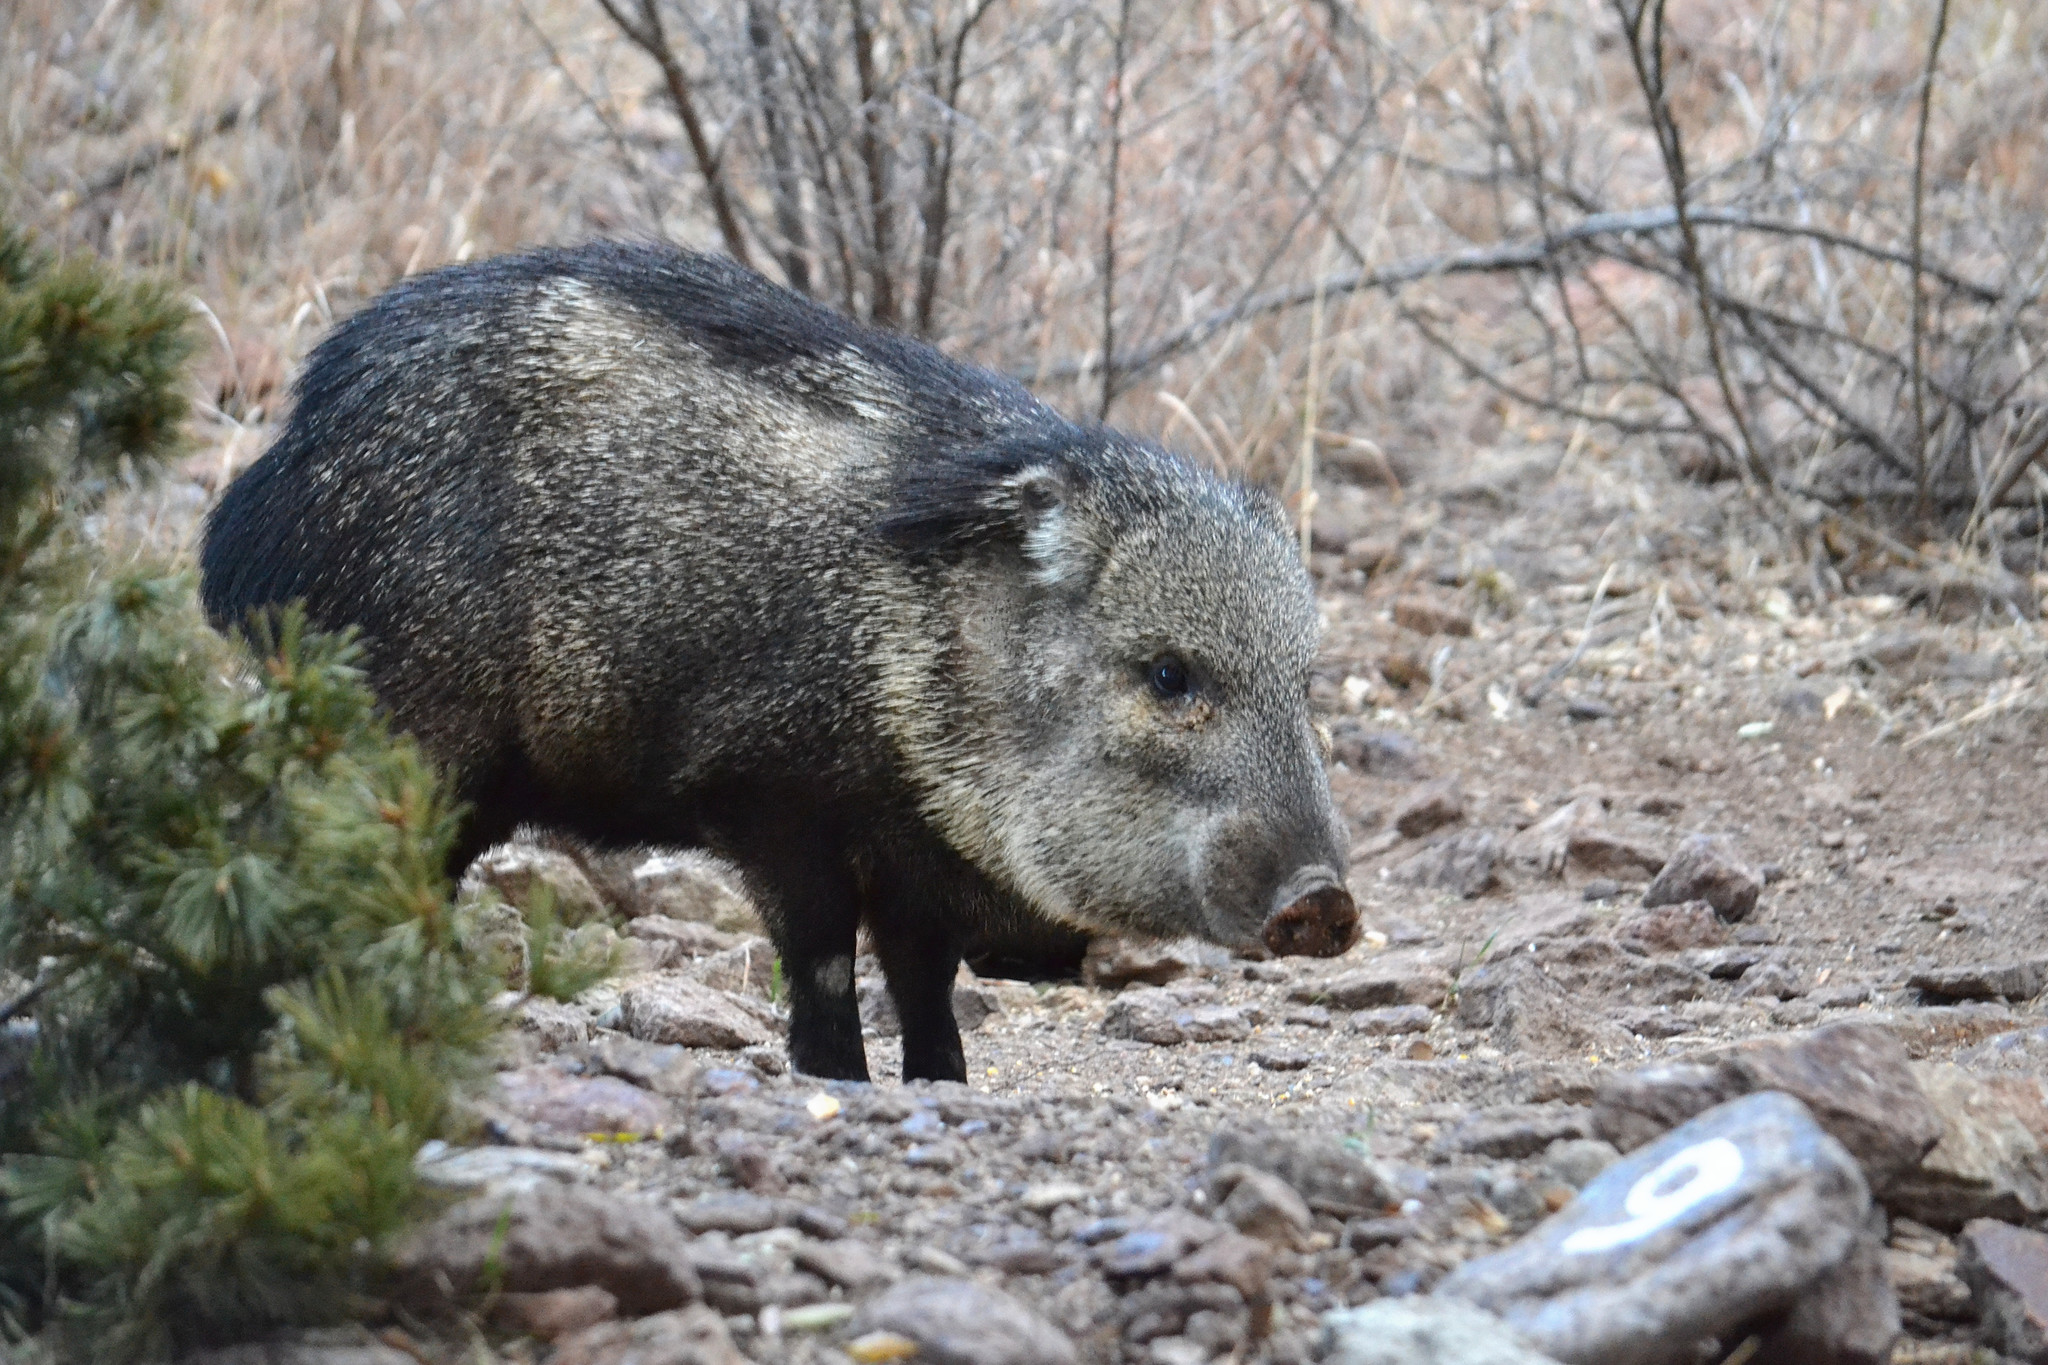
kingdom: Animalia
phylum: Chordata
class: Mammalia
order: Artiodactyla
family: Tayassuidae
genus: Pecari
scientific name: Pecari tajacu
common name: Collared peccary
